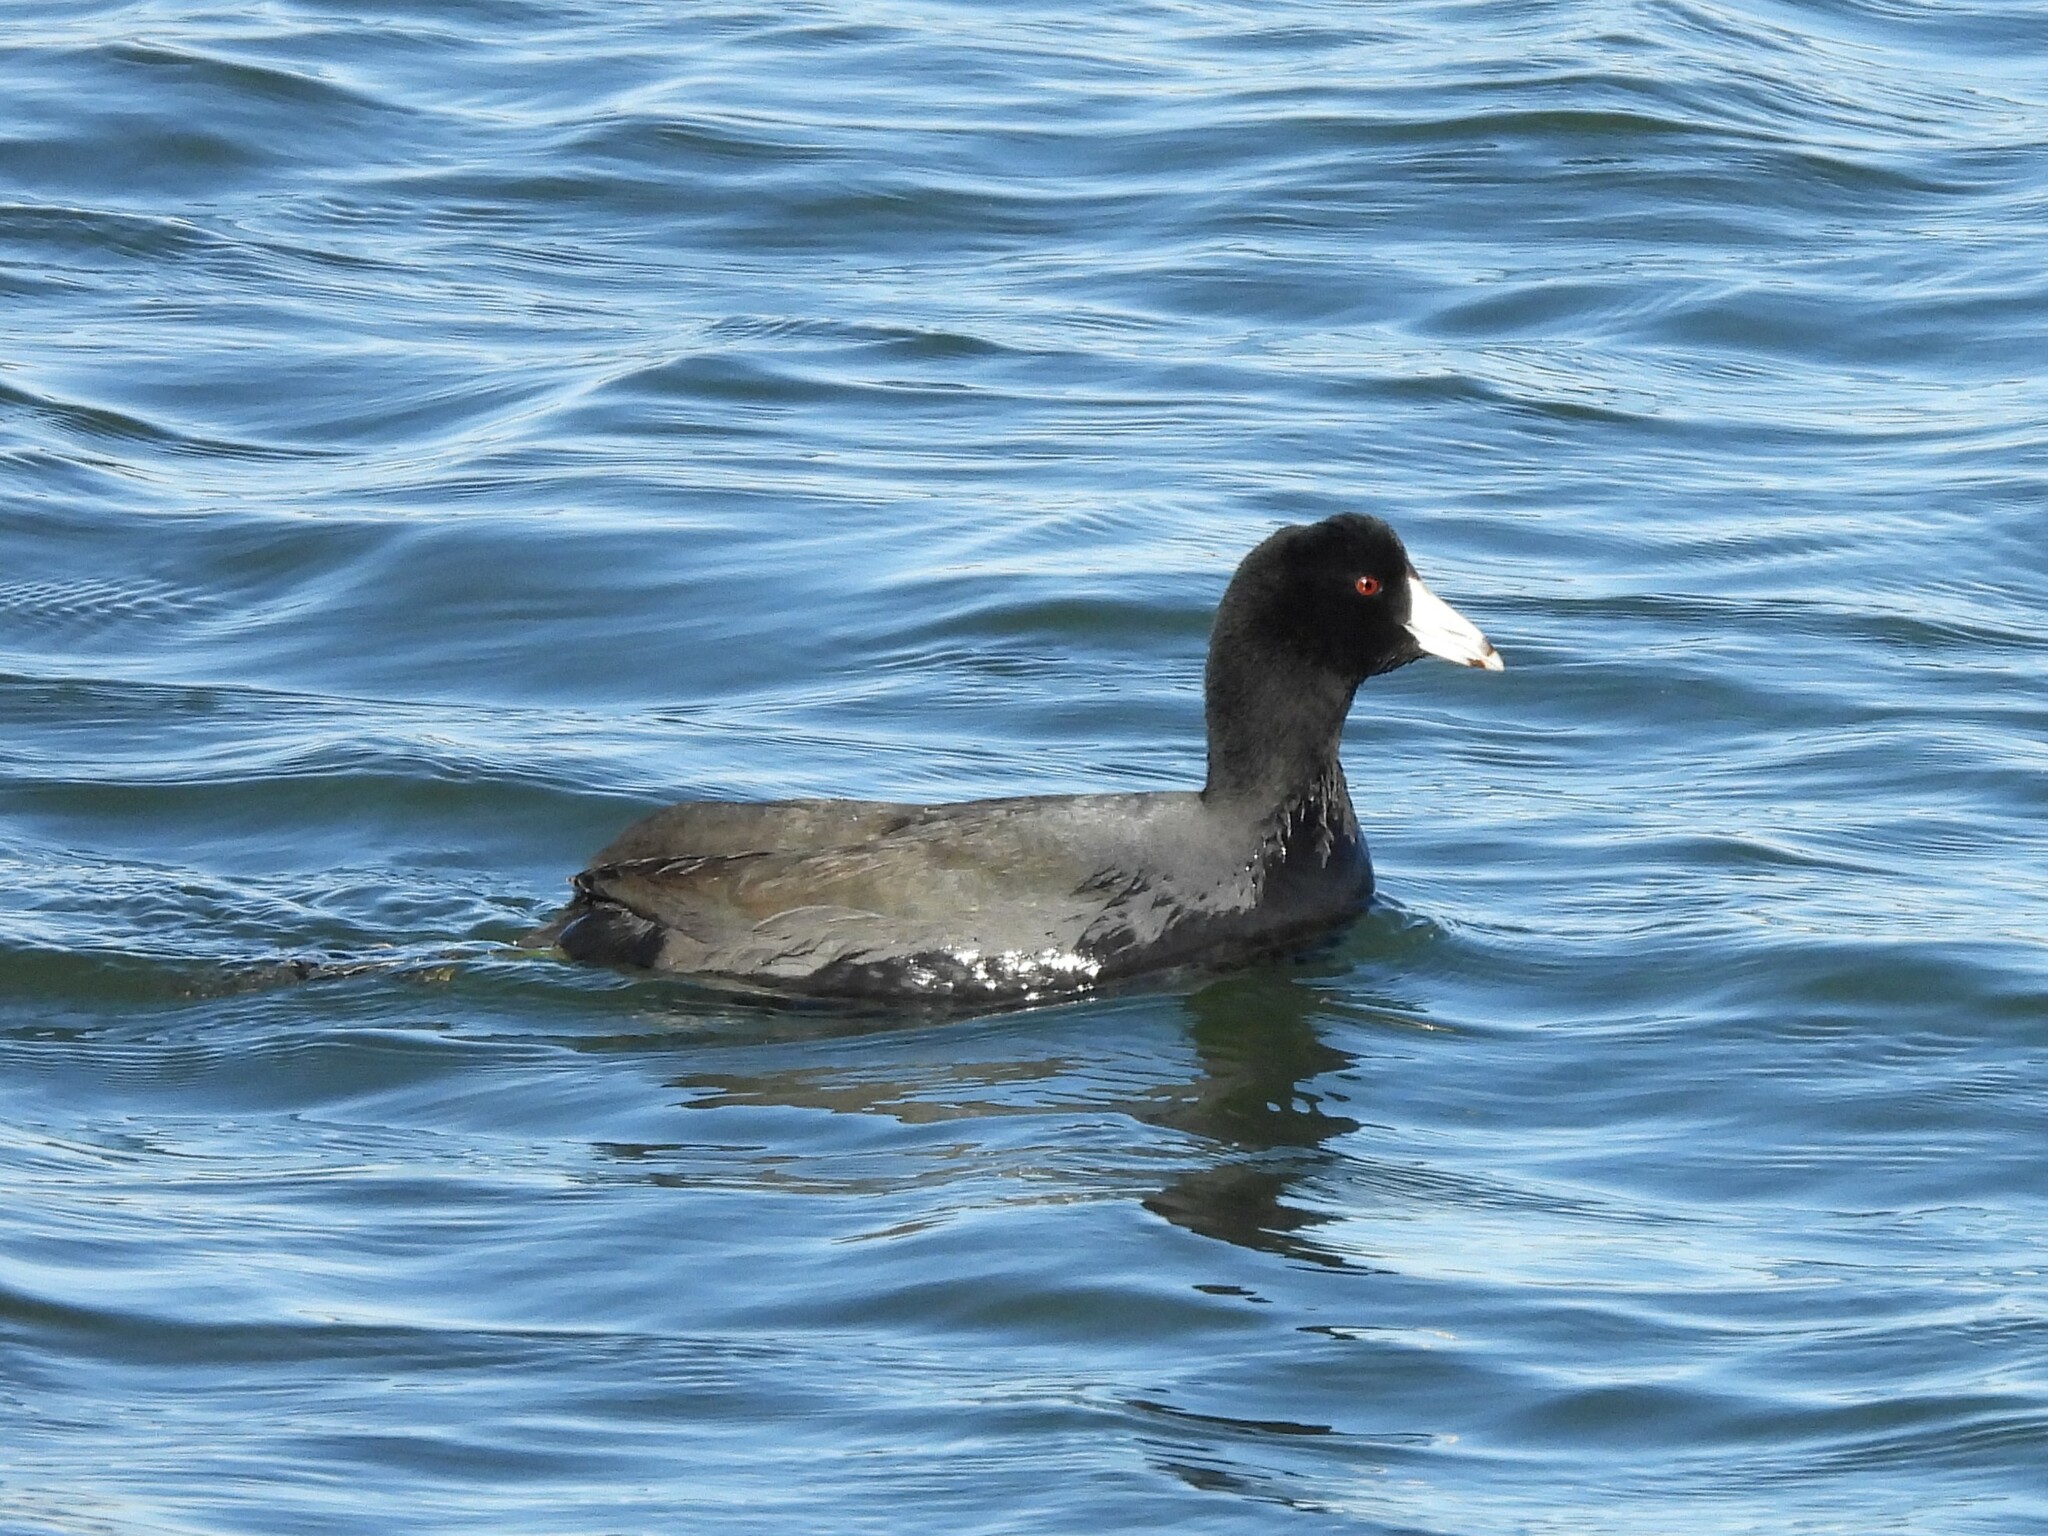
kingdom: Animalia
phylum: Chordata
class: Aves
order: Gruiformes
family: Rallidae
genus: Fulica
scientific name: Fulica americana
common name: American coot
